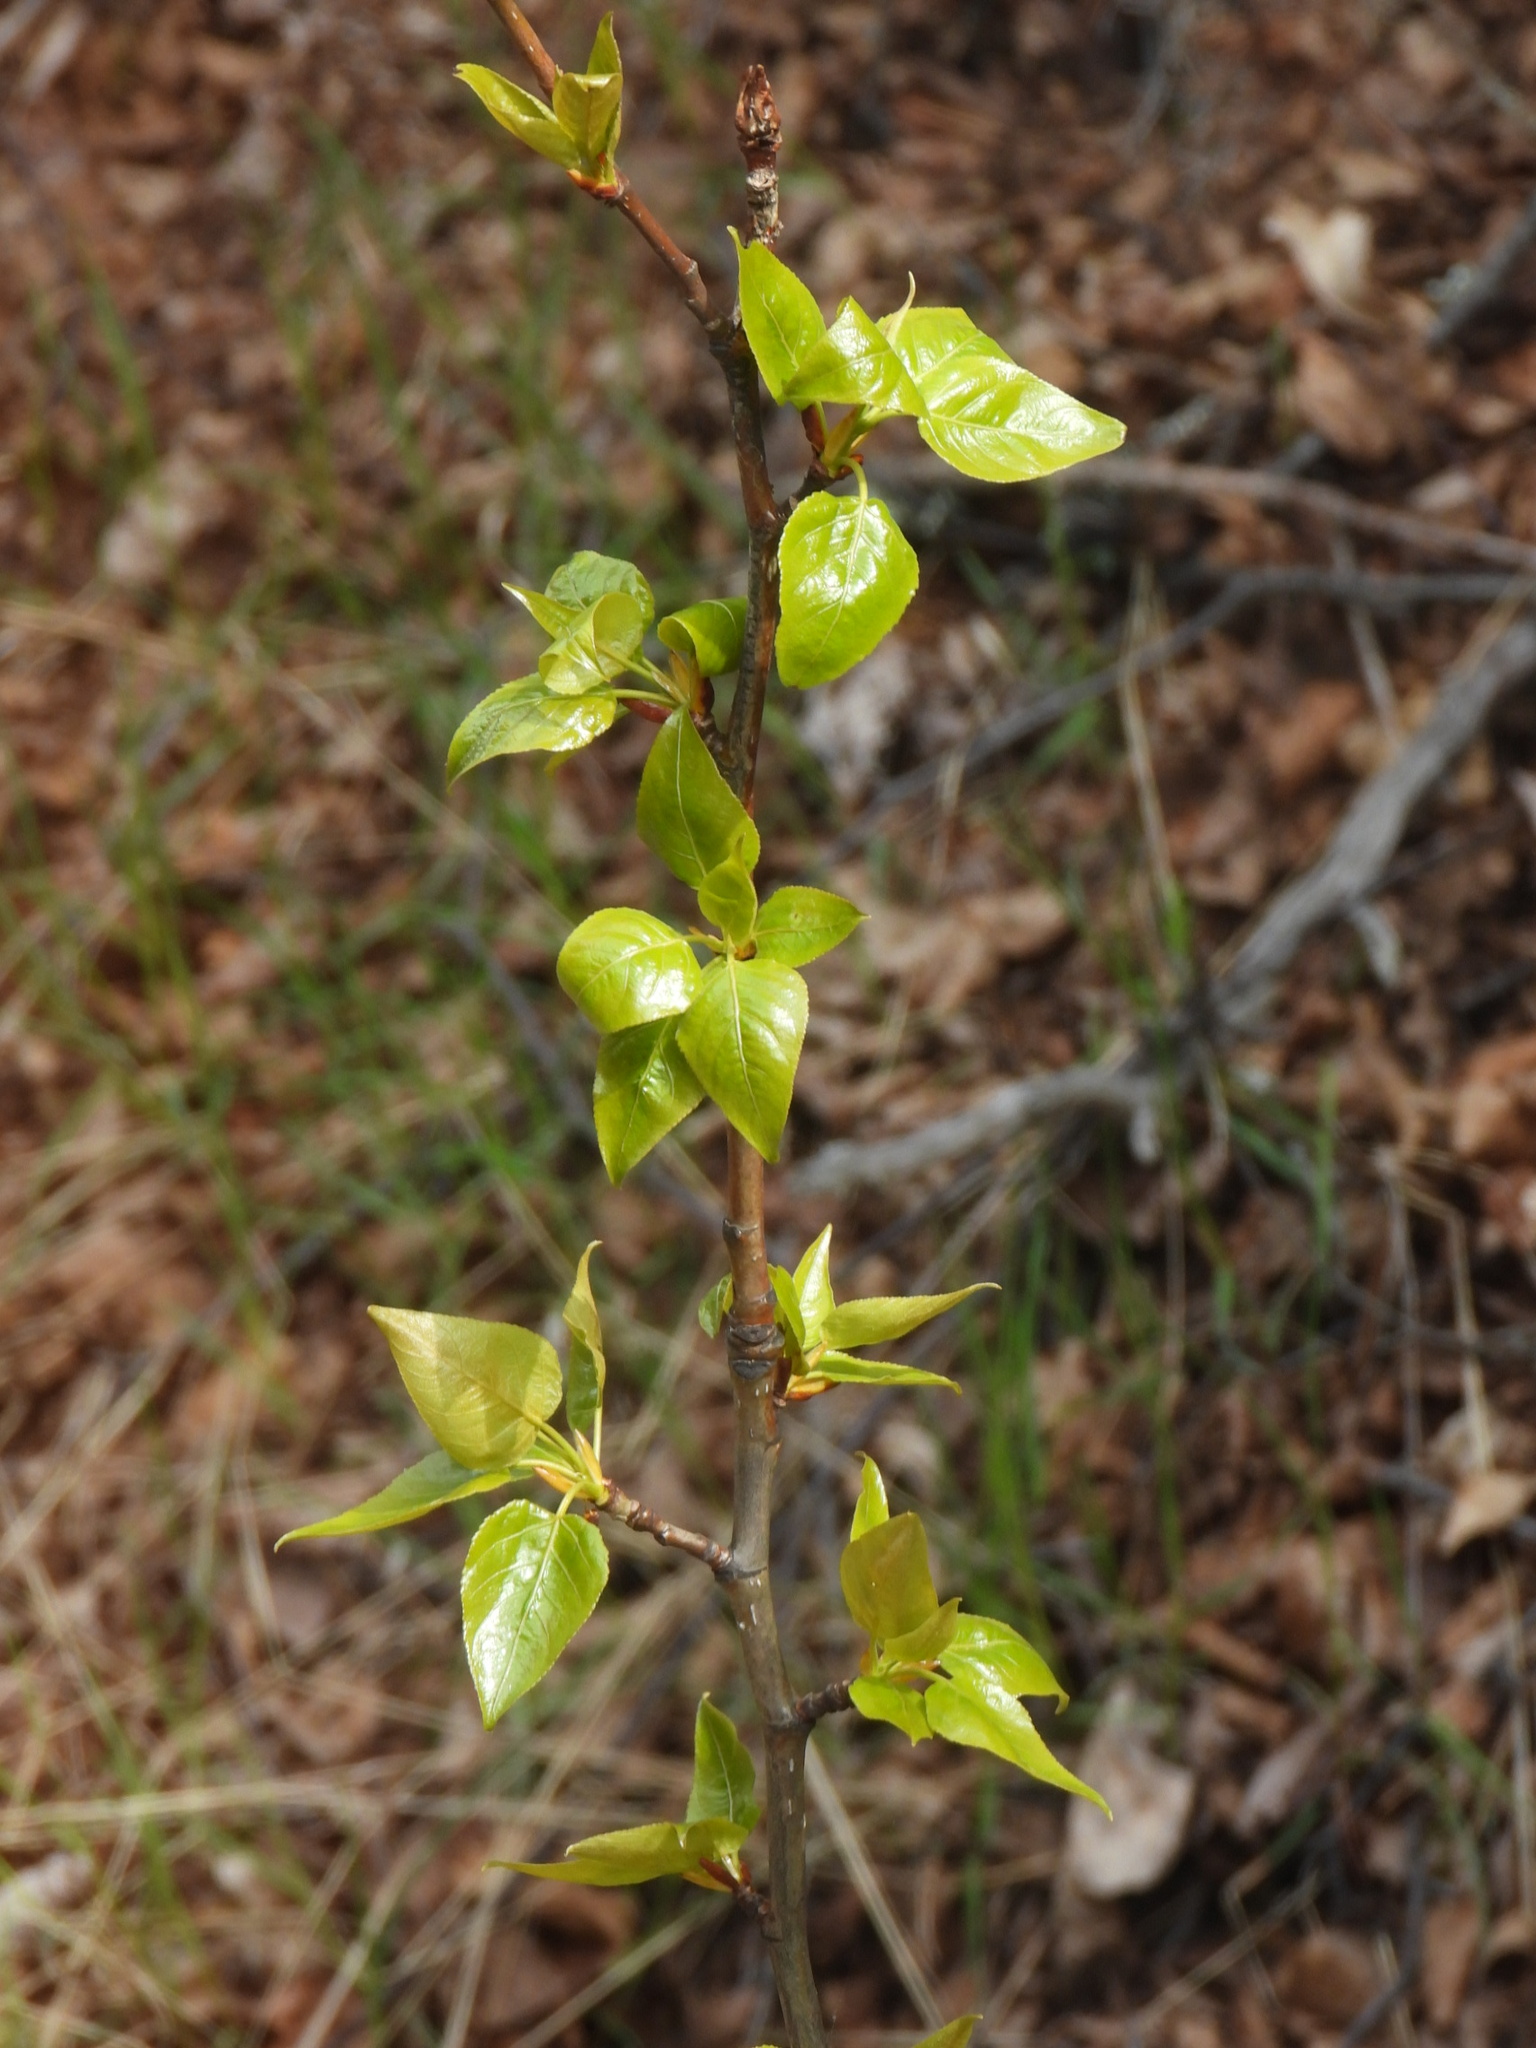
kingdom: Plantae
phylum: Tracheophyta
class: Magnoliopsida
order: Malpighiales
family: Salicaceae
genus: Populus
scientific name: Populus trichocarpa
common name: Black cottonwood
